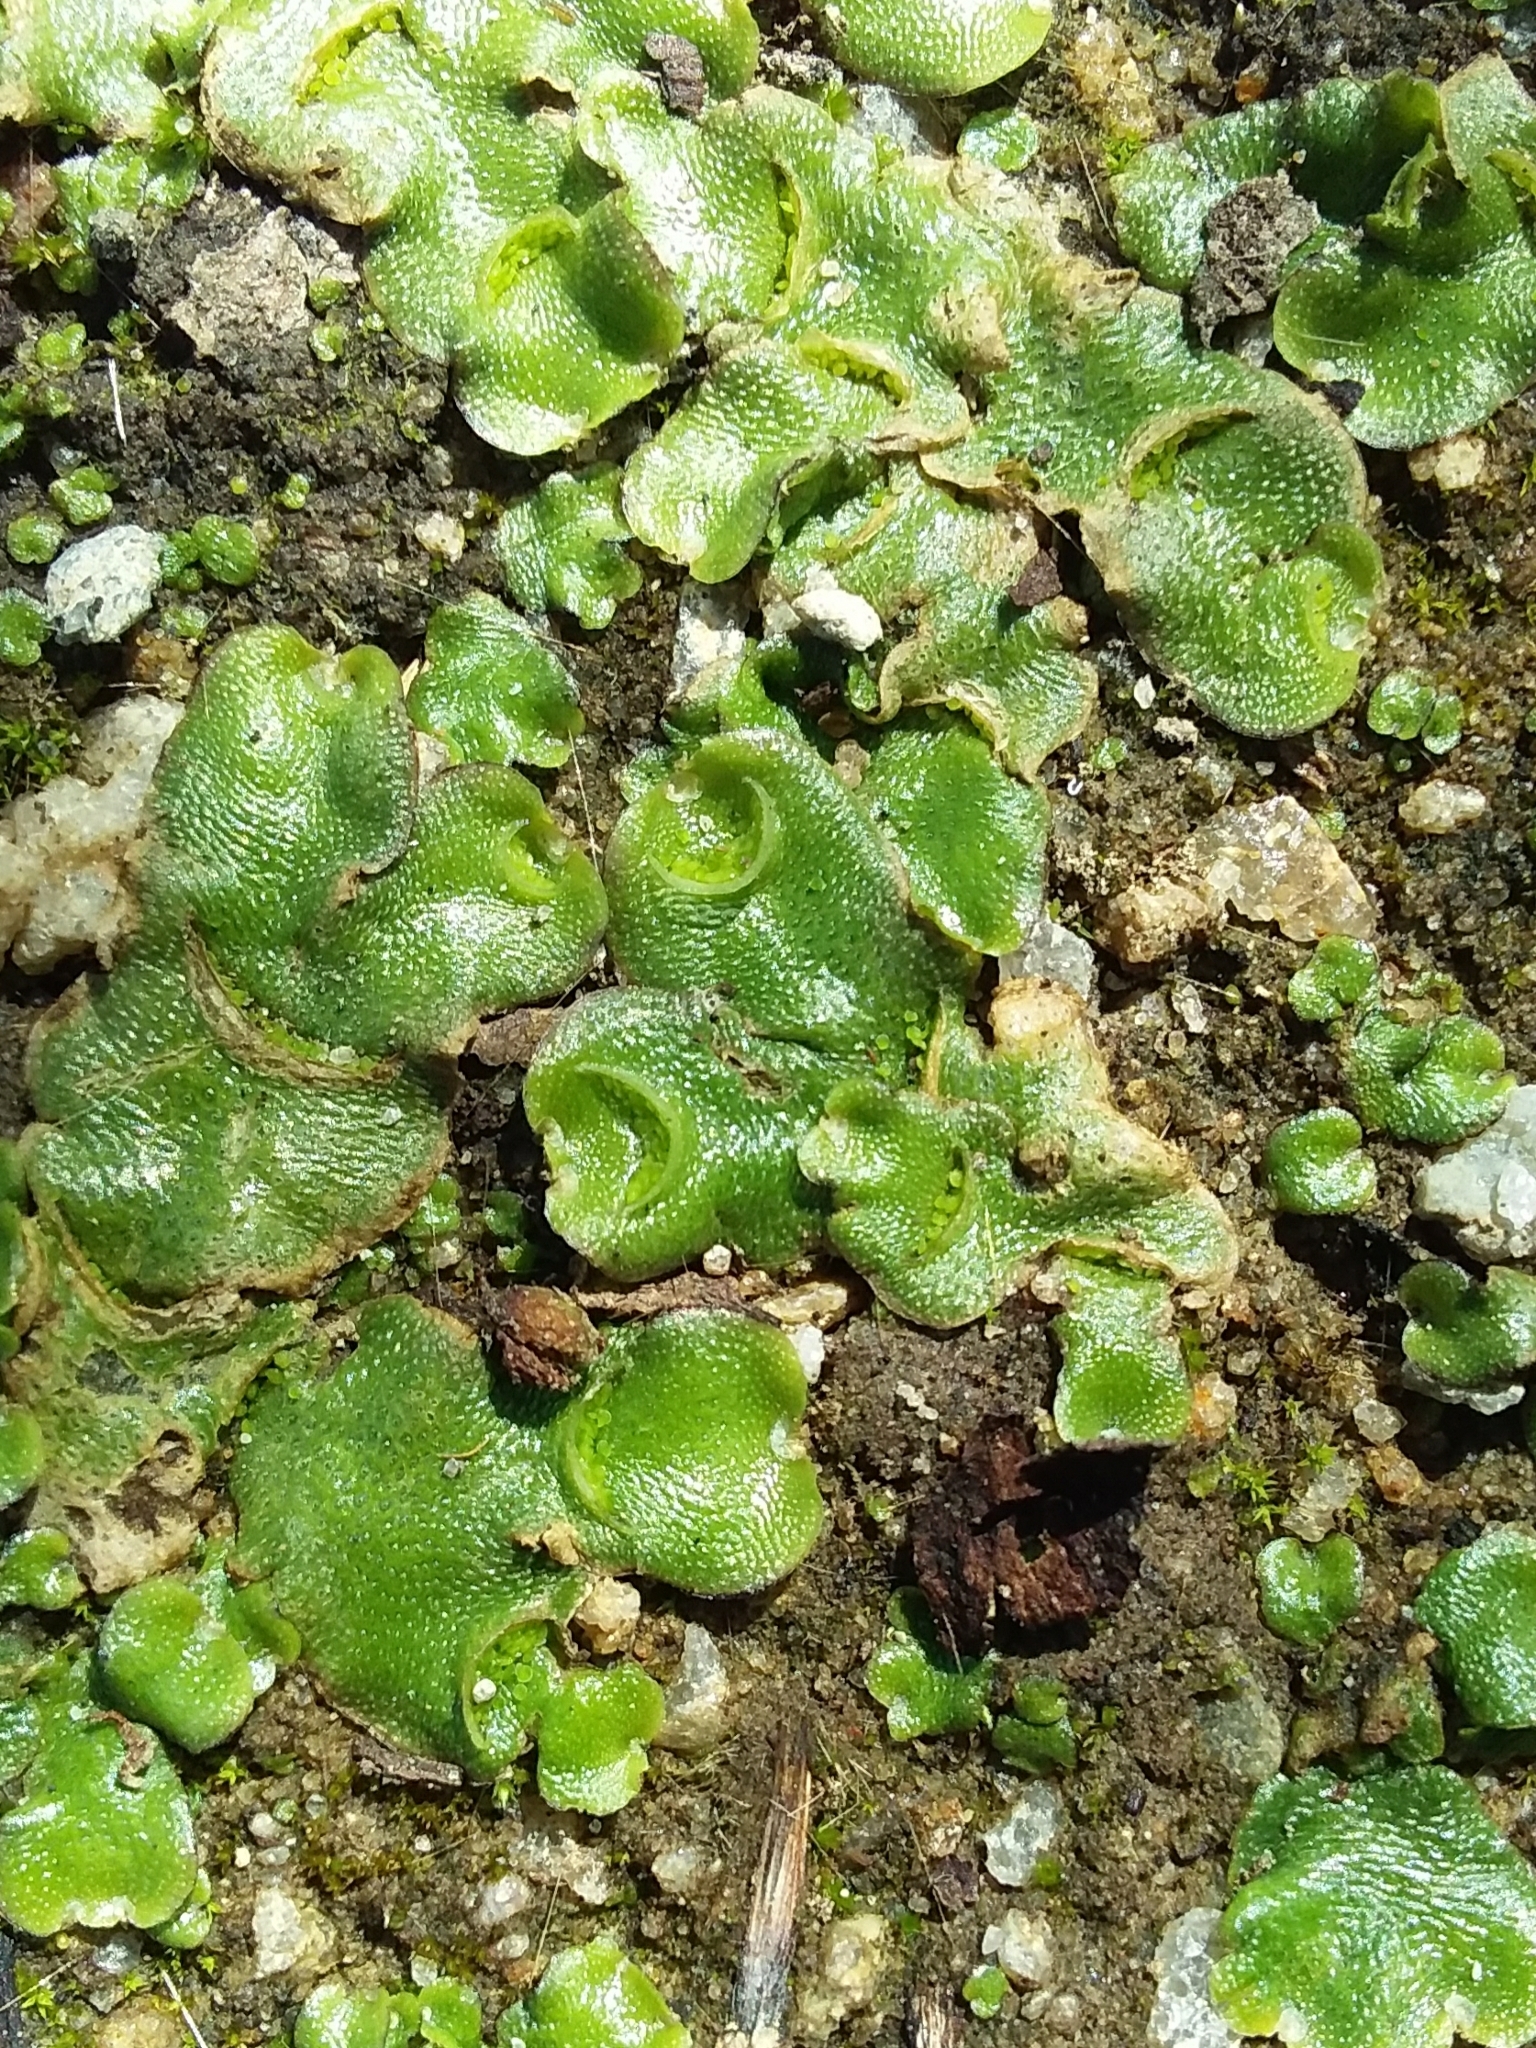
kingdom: Plantae
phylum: Marchantiophyta
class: Marchantiopsida
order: Lunulariales
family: Lunulariaceae
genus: Lunularia
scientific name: Lunularia cruciata
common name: Crescent-cup liverwort
